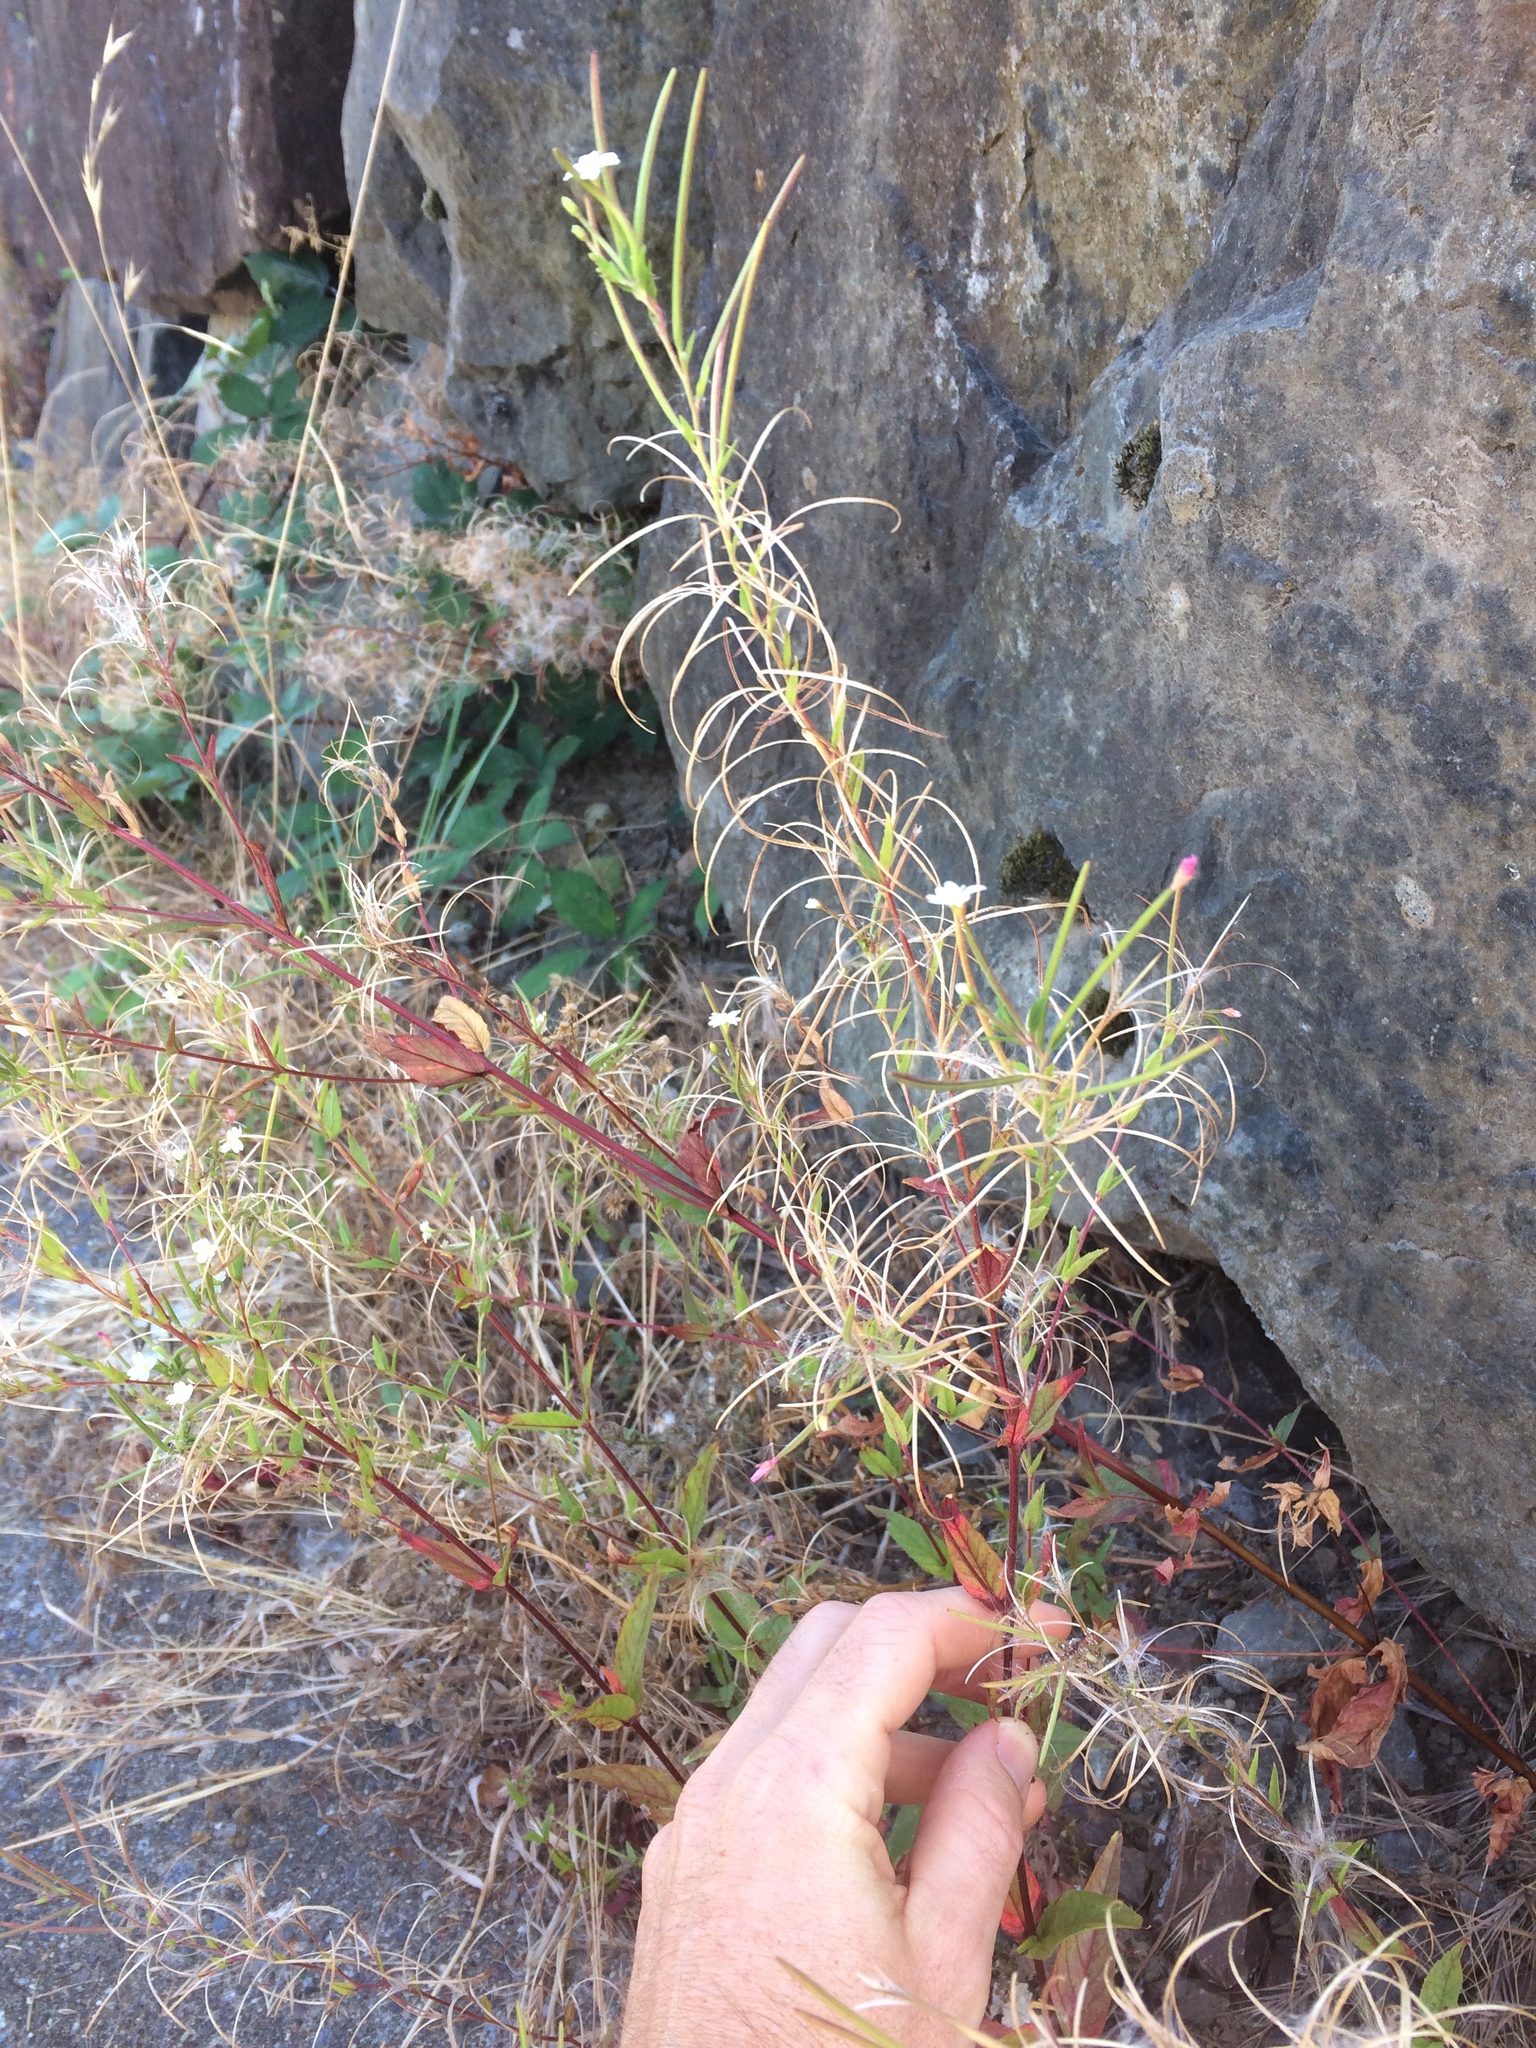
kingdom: Plantae
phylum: Tracheophyta
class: Magnoliopsida
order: Myrtales
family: Onagraceae
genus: Epilobium
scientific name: Epilobium ciliatum
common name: American willowherb
